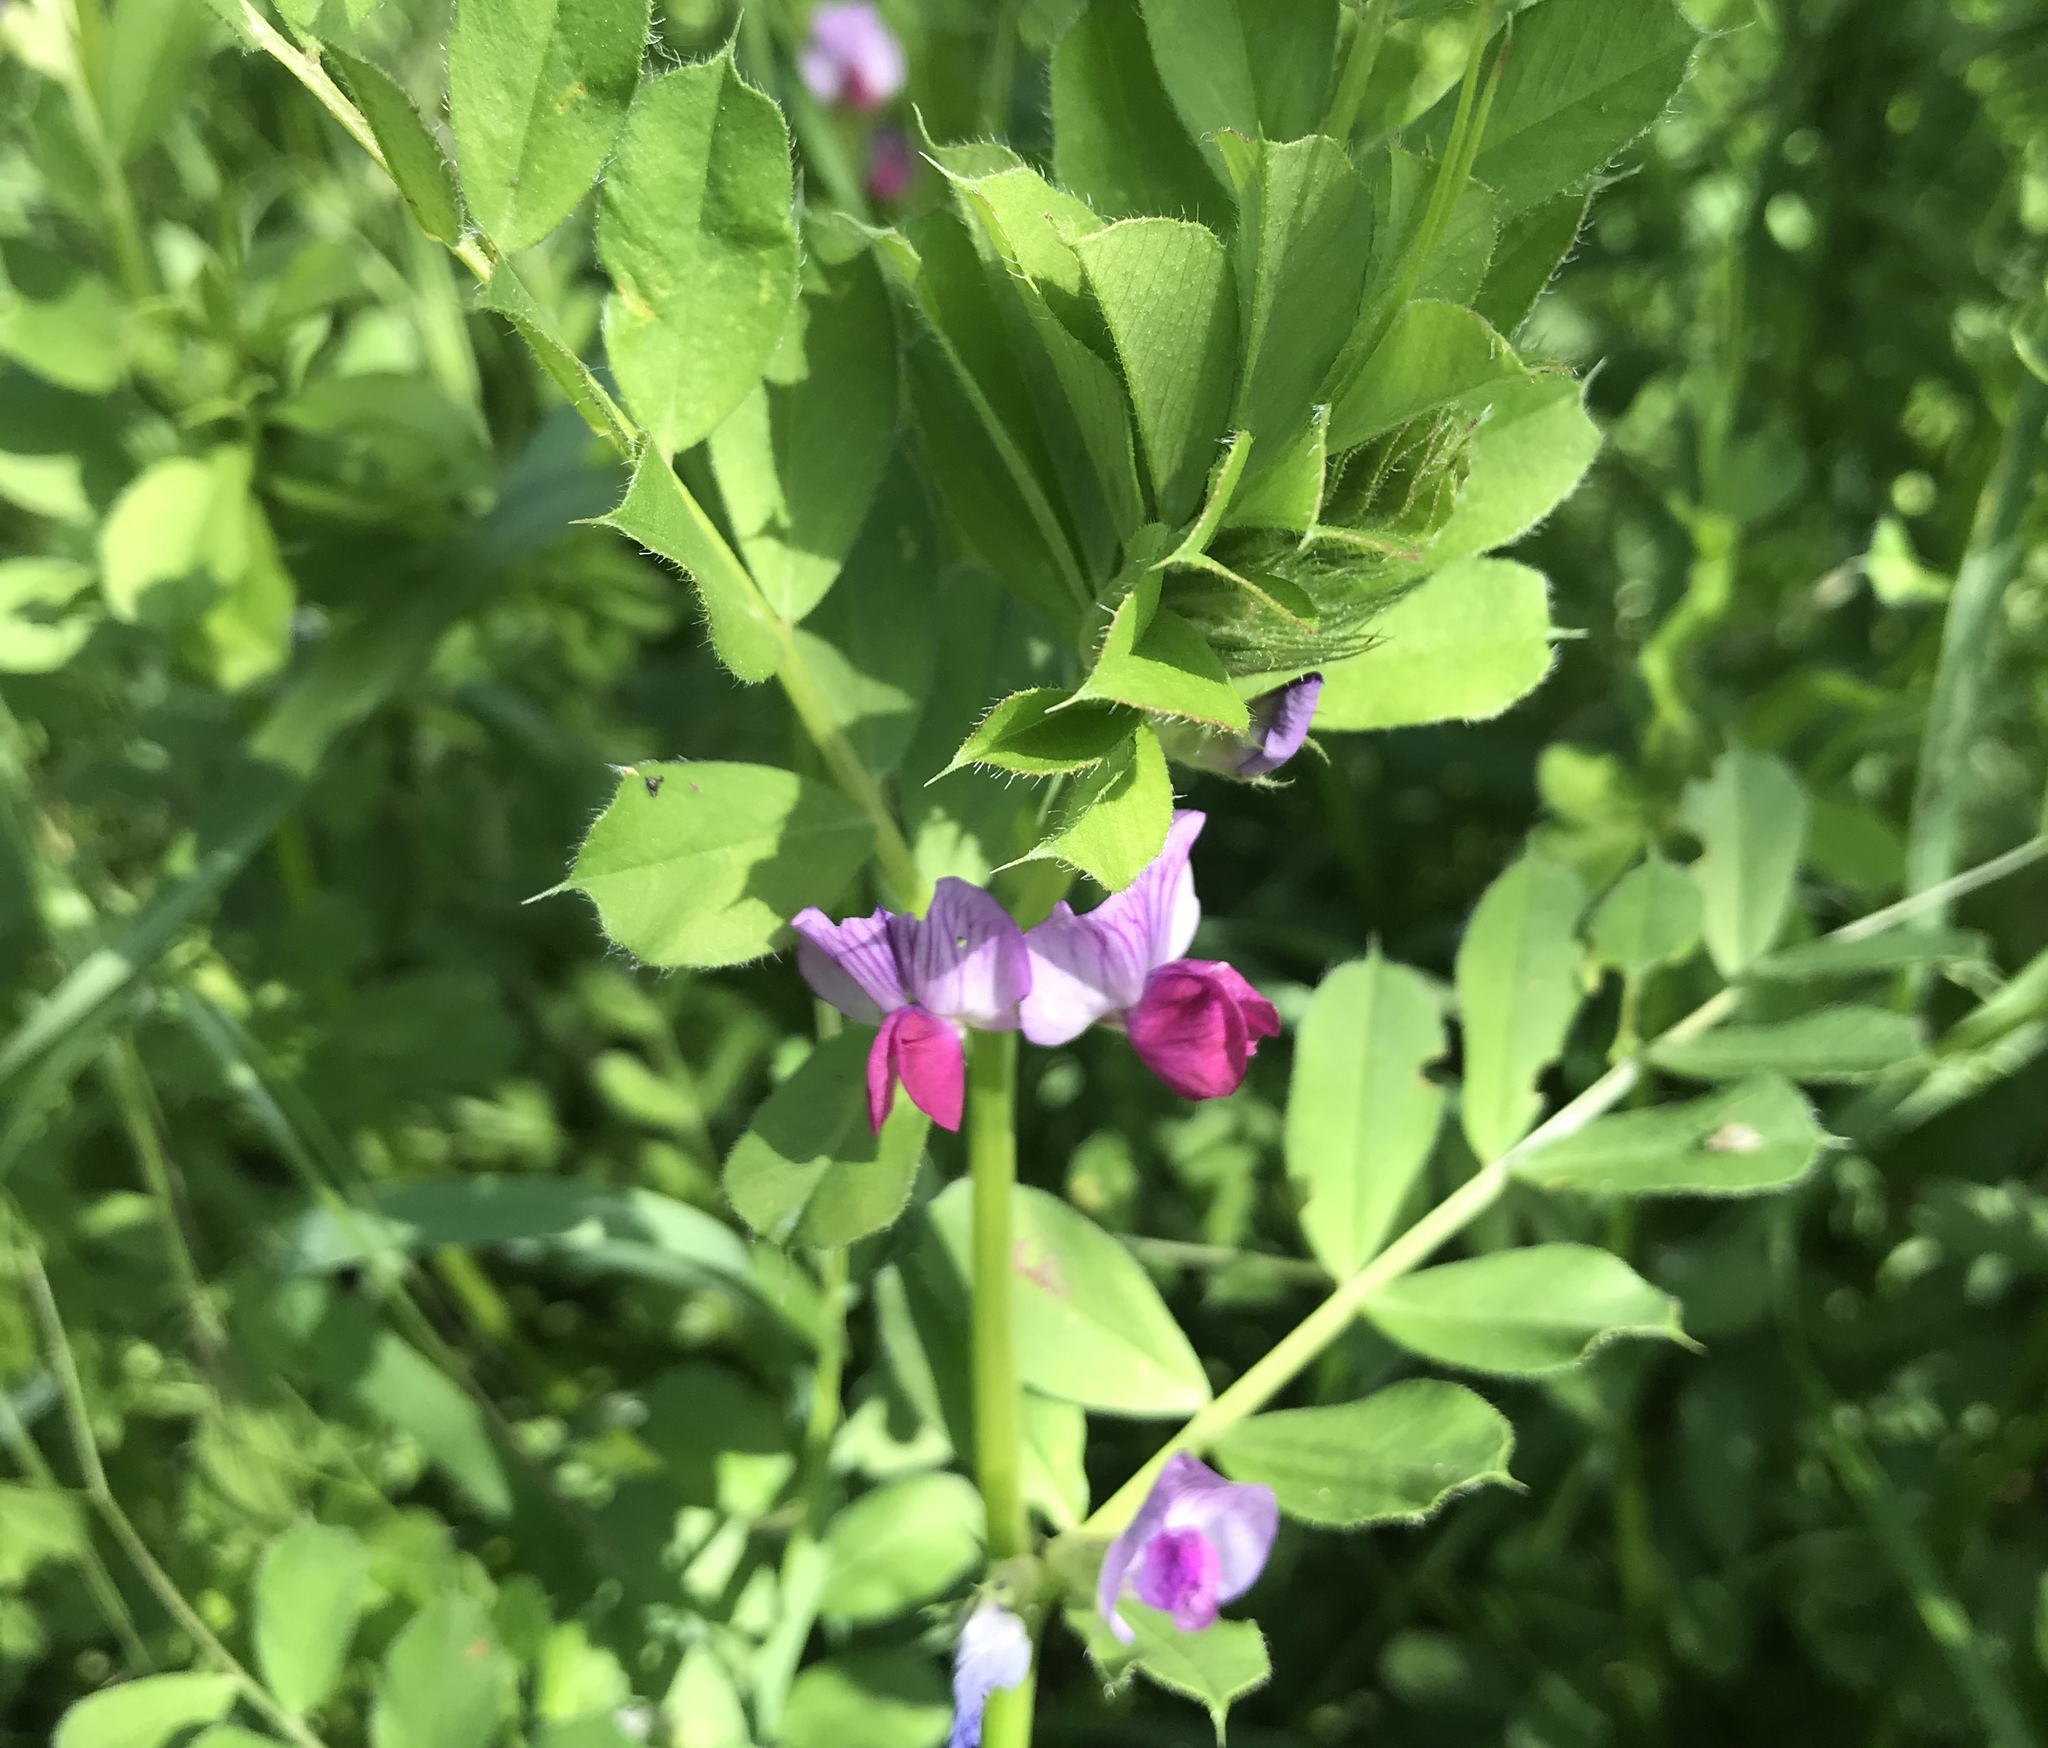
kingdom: Plantae
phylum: Tracheophyta
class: Magnoliopsida
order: Fabales
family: Fabaceae
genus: Vicia
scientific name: Vicia sativa
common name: Garden vetch
